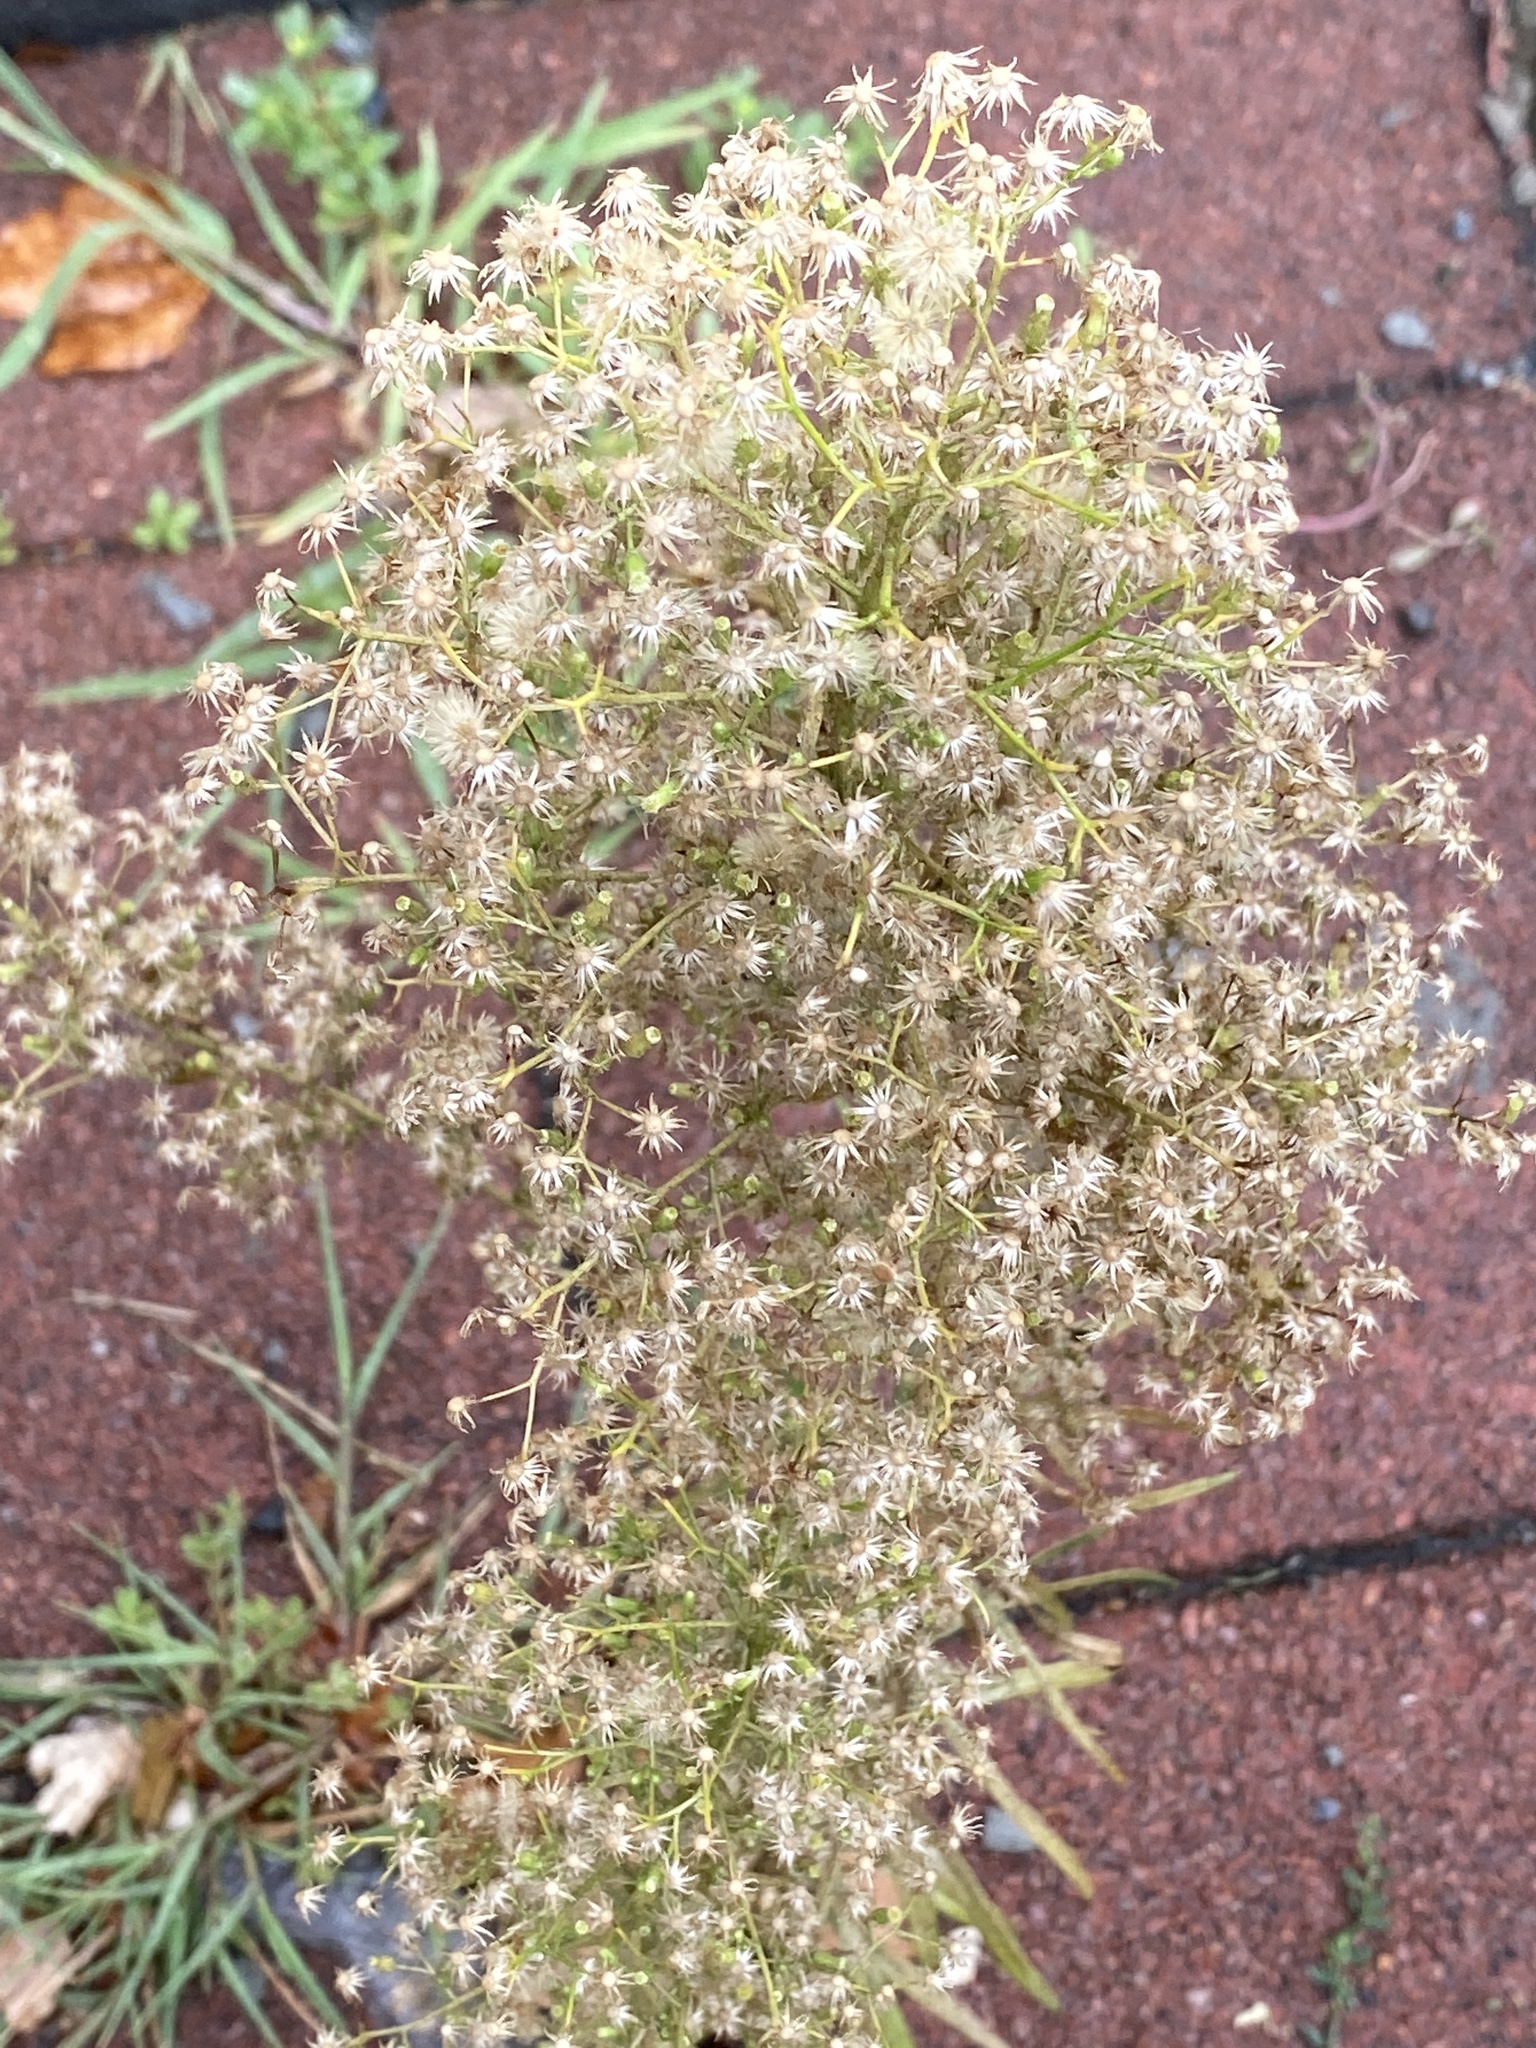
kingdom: Plantae
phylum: Tracheophyta
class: Magnoliopsida
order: Asterales
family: Asteraceae
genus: Erigeron
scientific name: Erigeron canadensis
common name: Canadian fleabane
